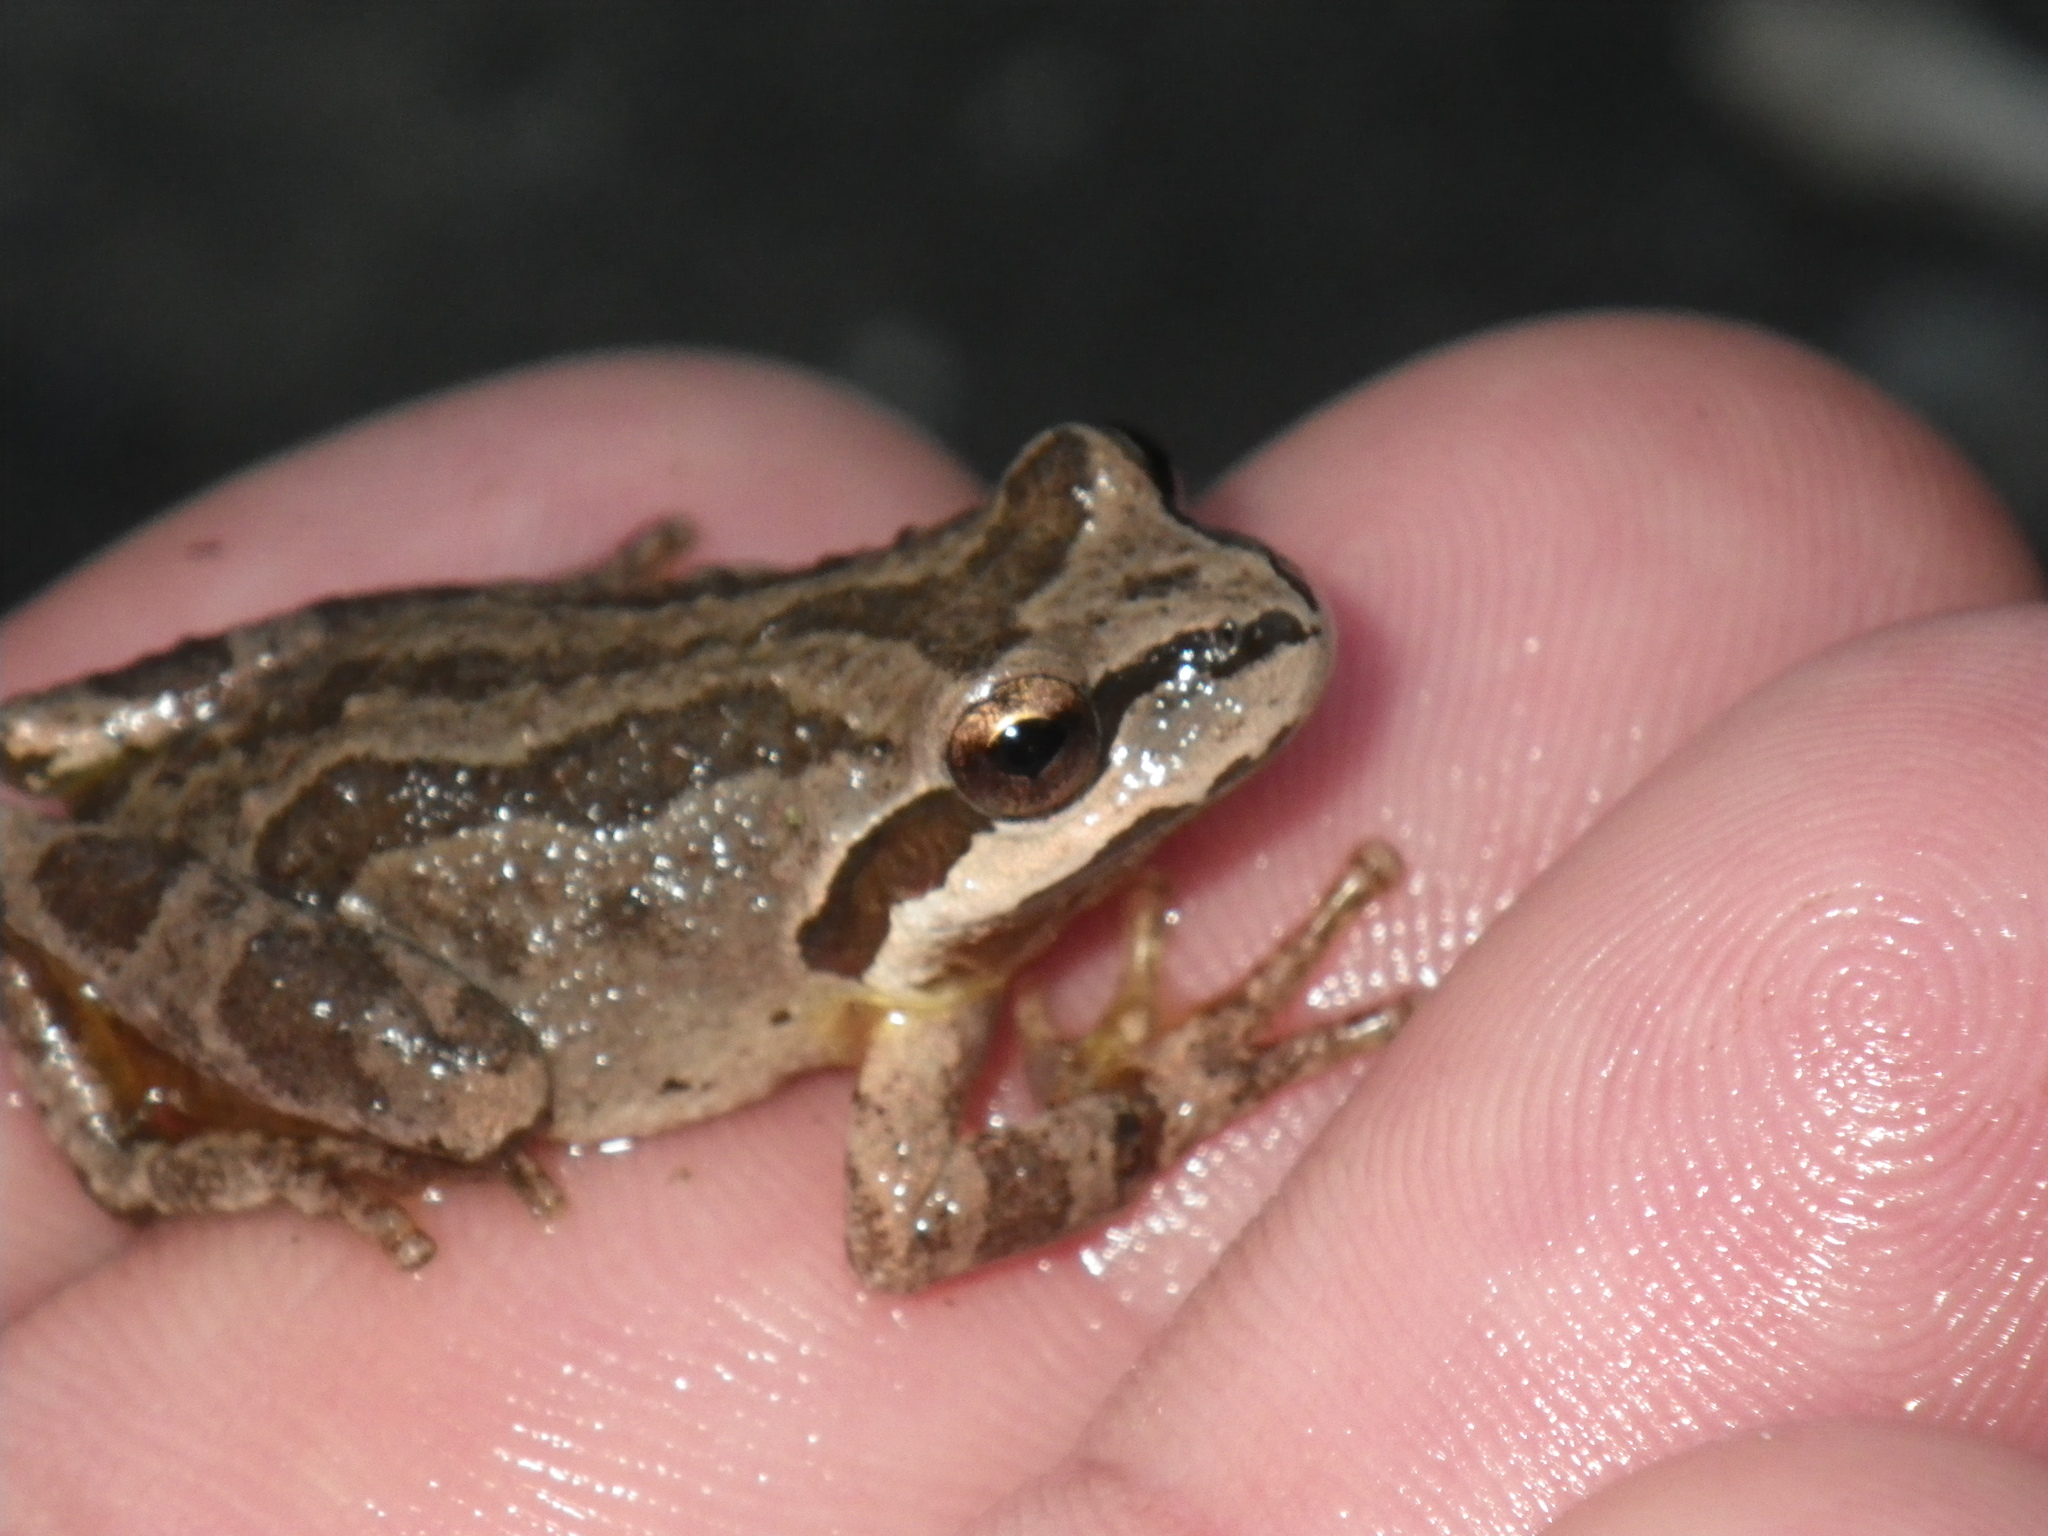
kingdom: Animalia
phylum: Chordata
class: Amphibia
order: Anura
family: Hylidae
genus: Pseudacris
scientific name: Pseudacris regilla
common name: Pacific chorus frog
